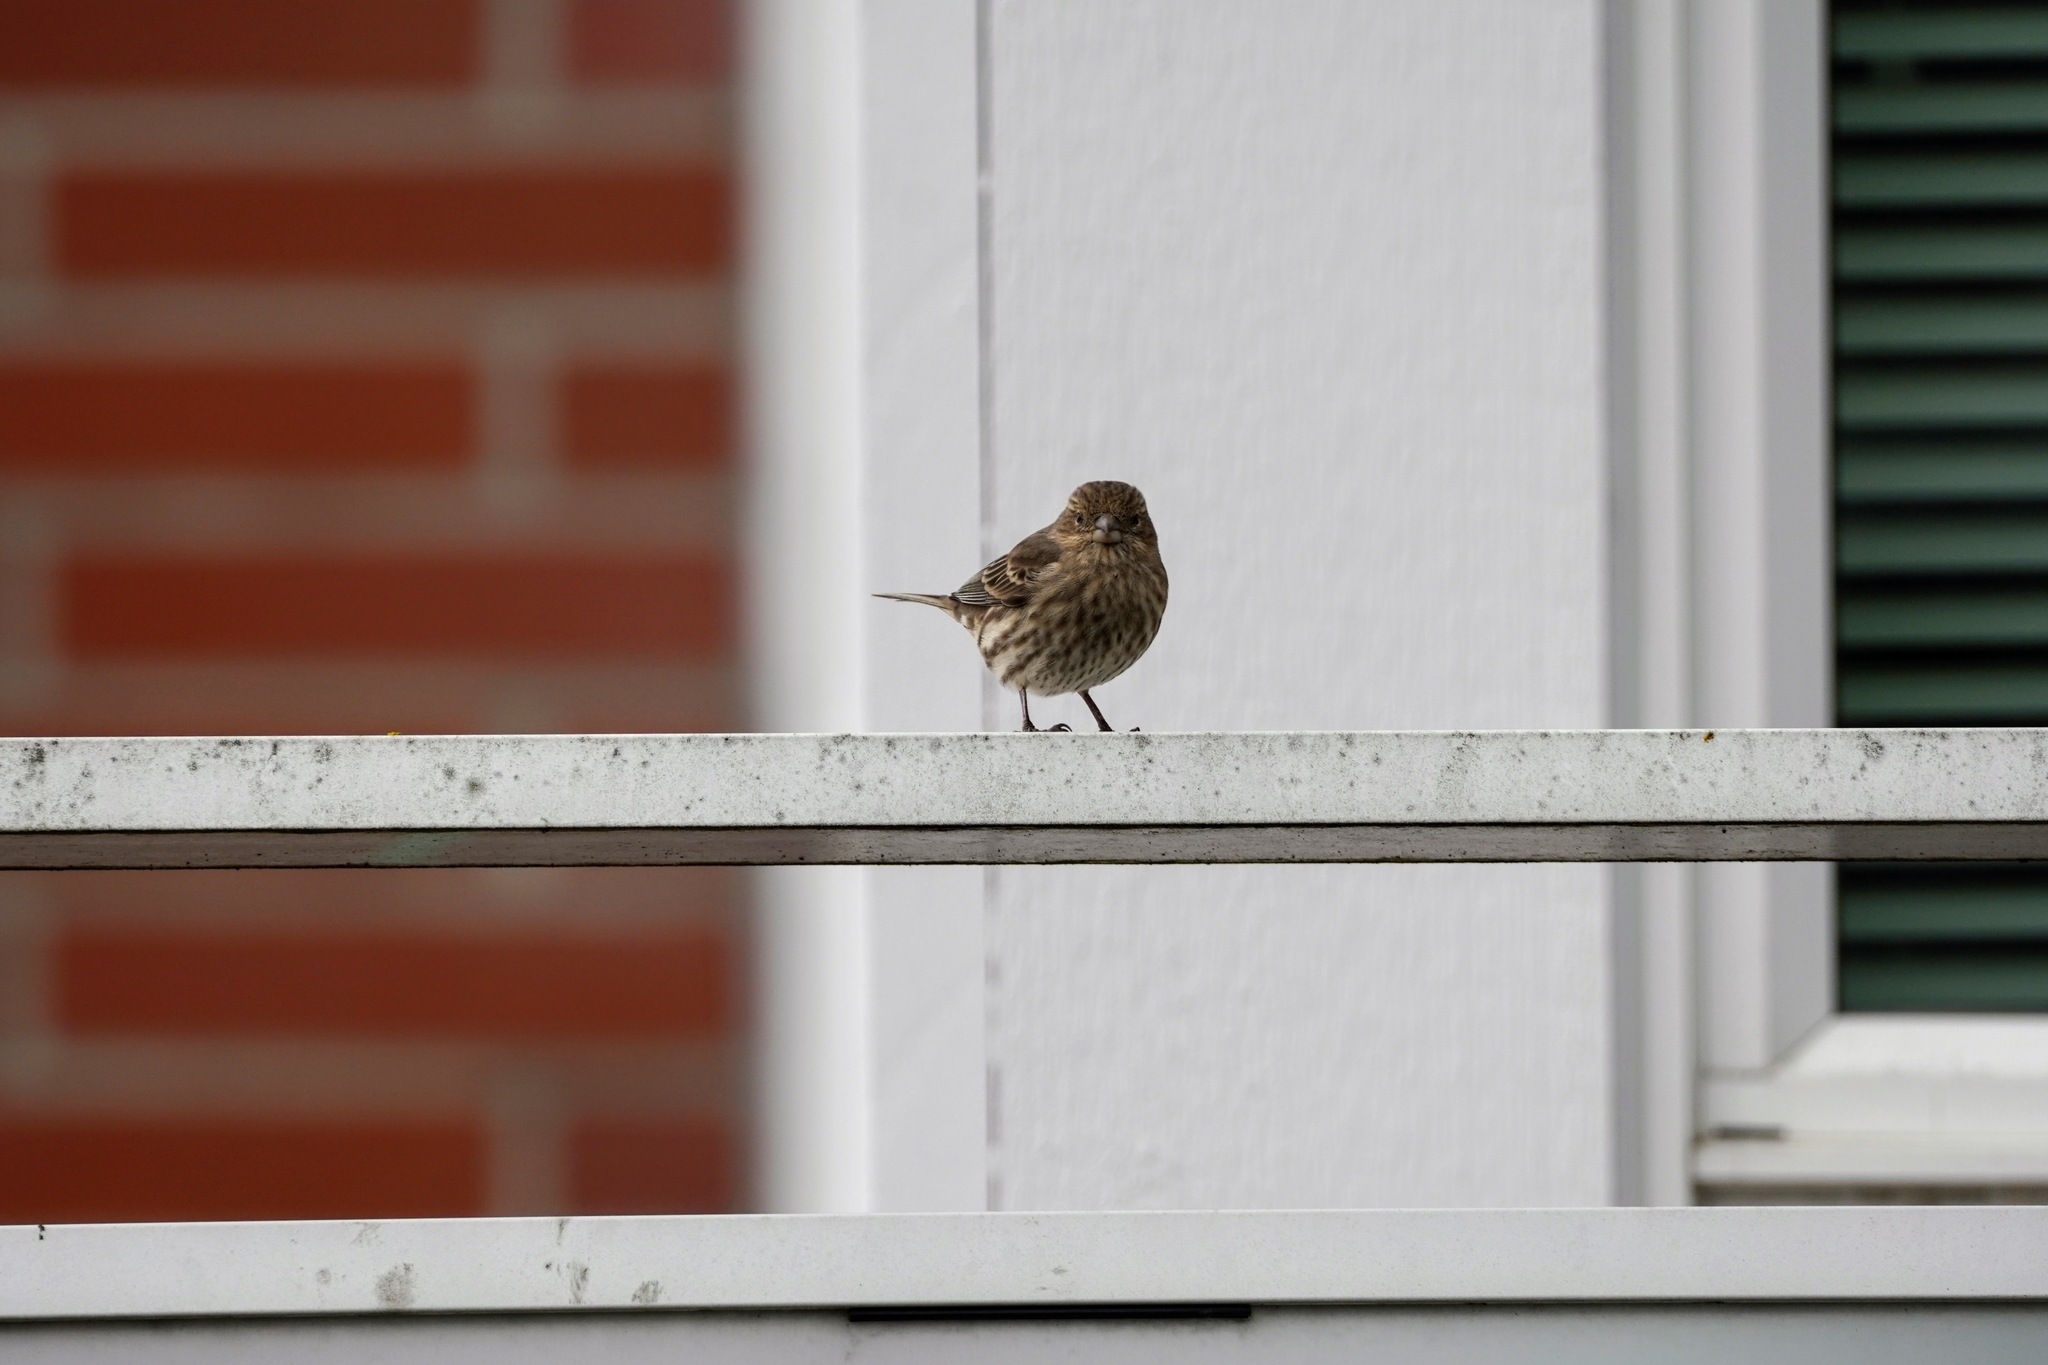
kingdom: Animalia
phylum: Chordata
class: Aves
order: Passeriformes
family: Fringillidae
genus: Haemorhous
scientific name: Haemorhous mexicanus
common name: House finch
